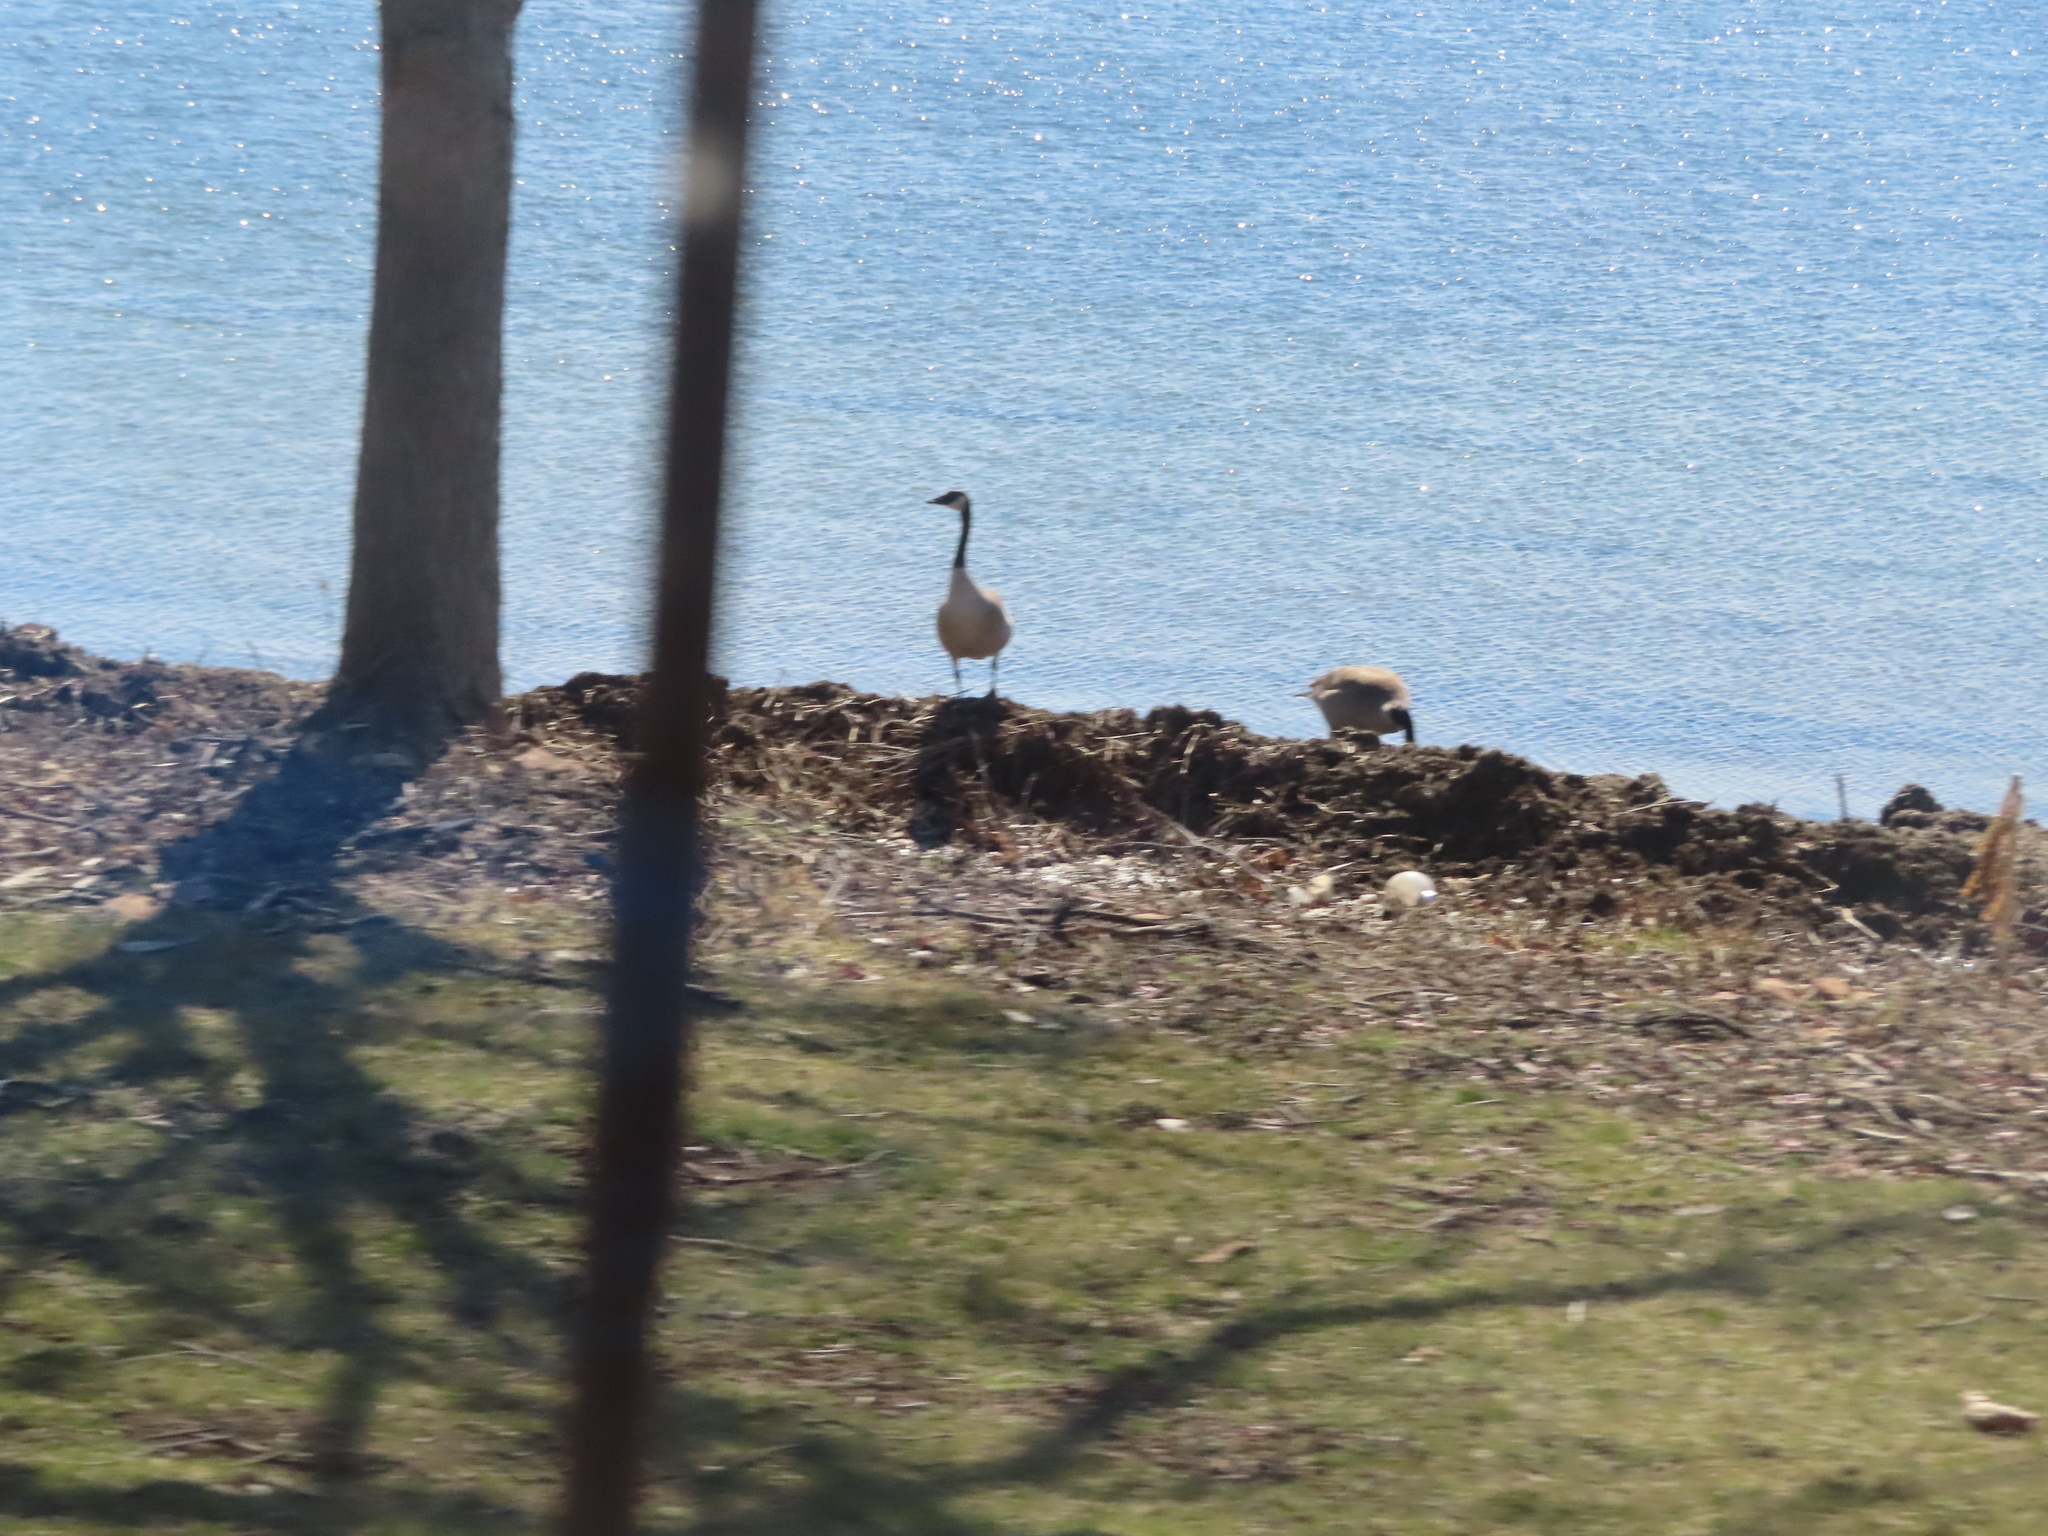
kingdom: Animalia
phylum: Chordata
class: Aves
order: Anseriformes
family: Anatidae
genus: Branta
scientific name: Branta canadensis
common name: Canada goose
